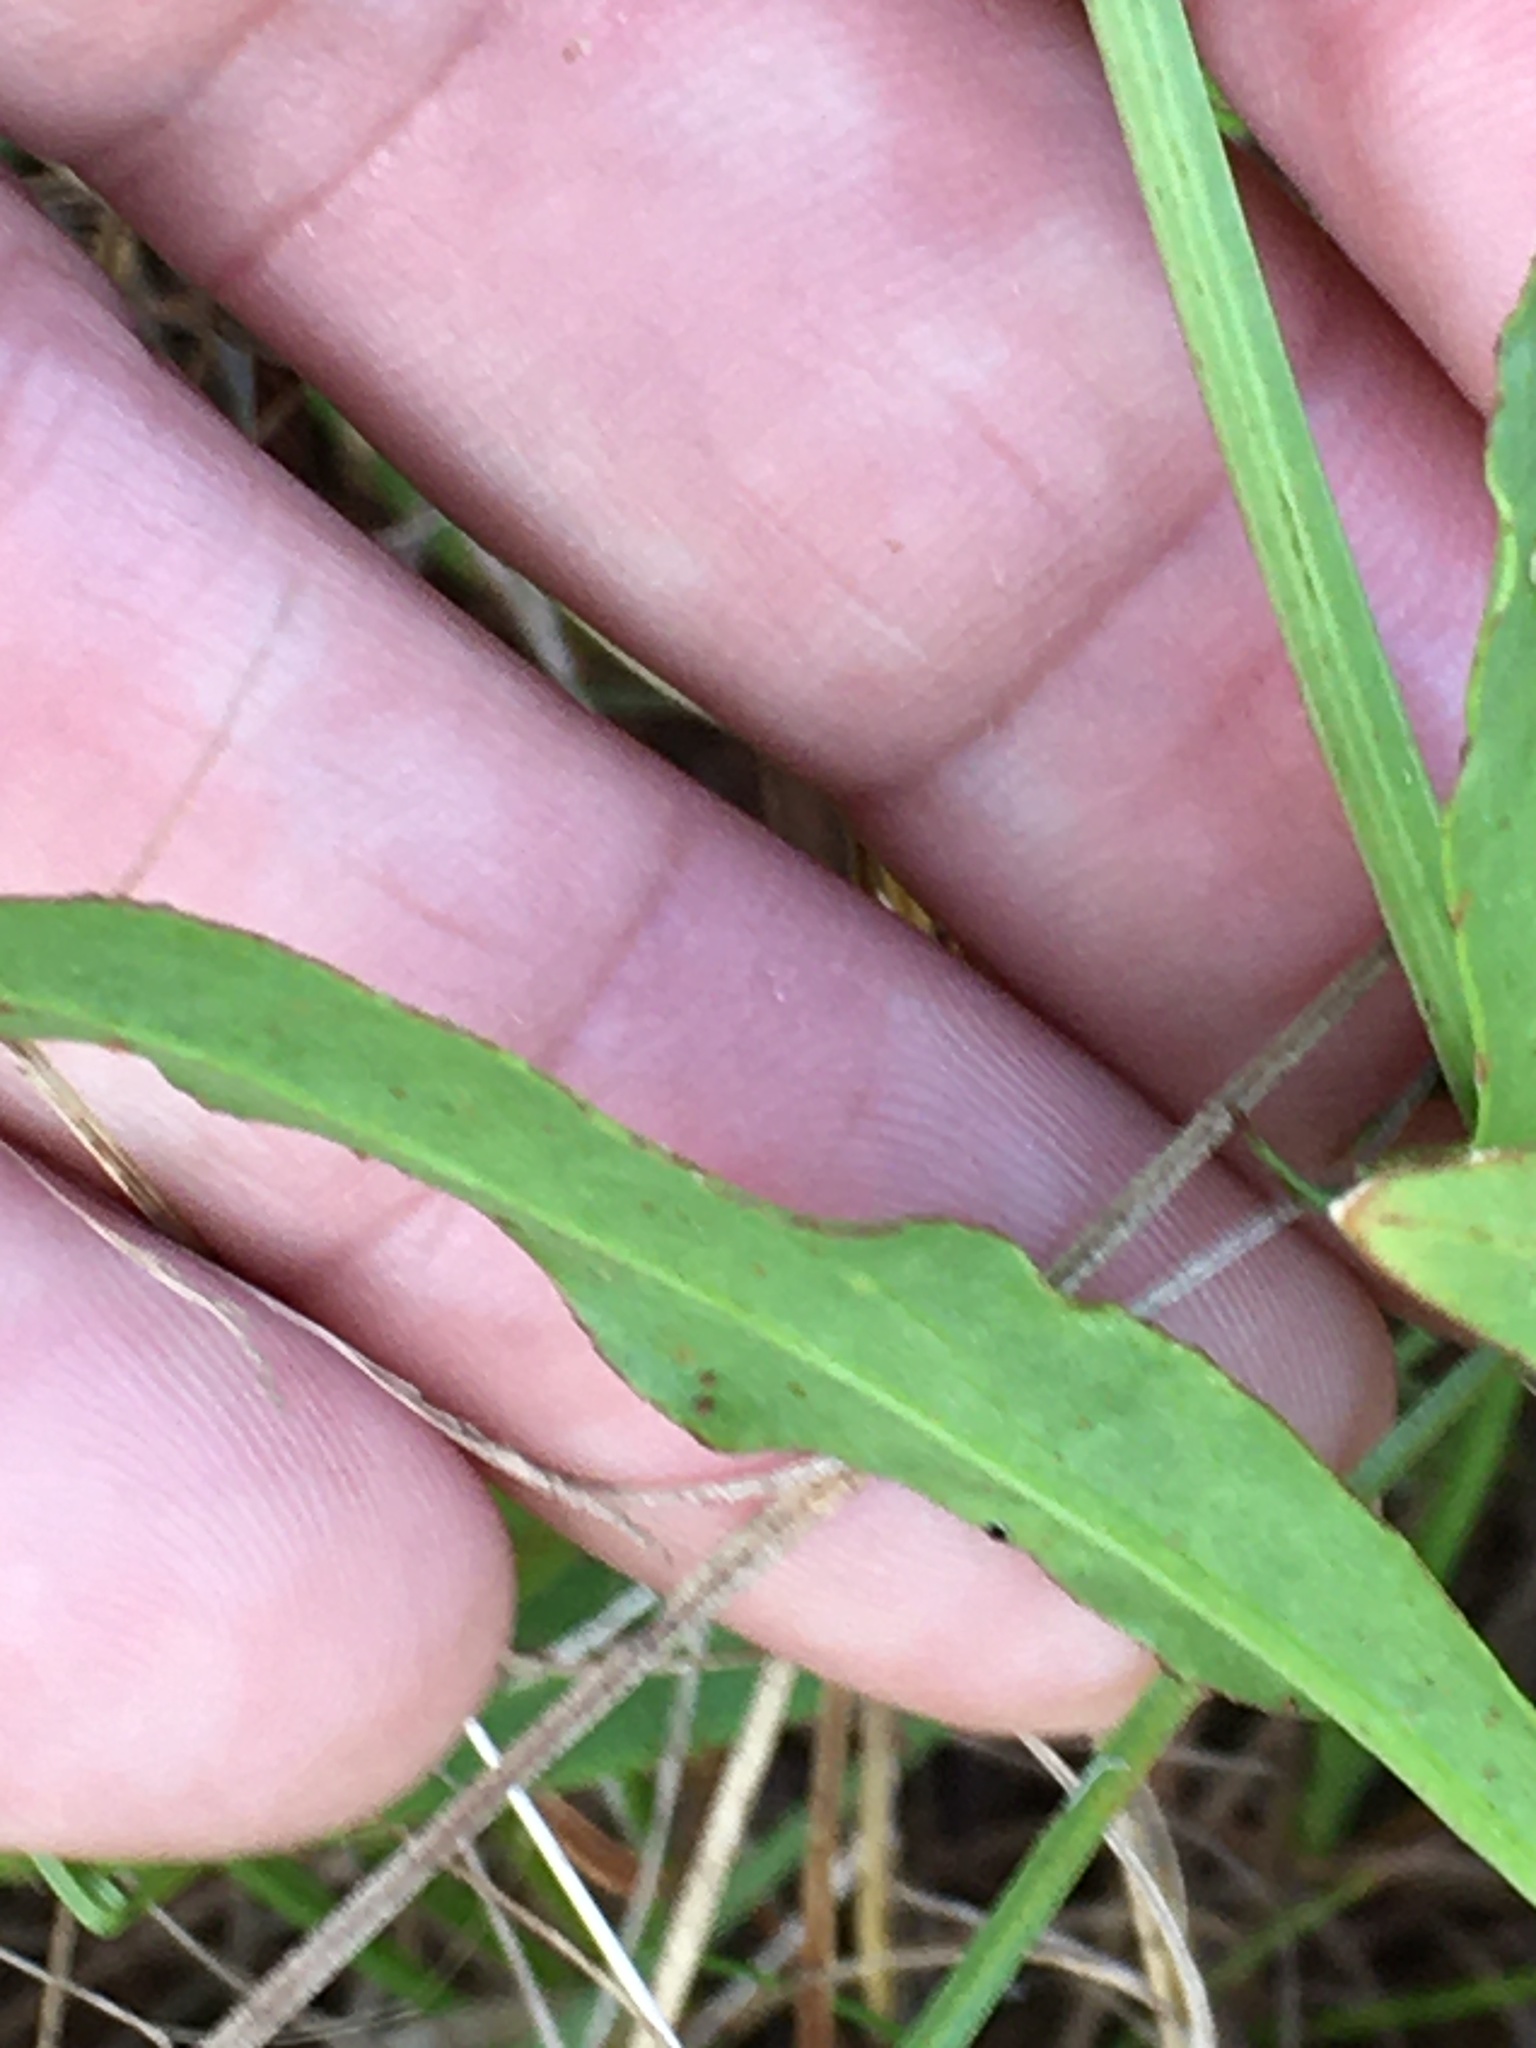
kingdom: Plantae
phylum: Tracheophyta
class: Magnoliopsida
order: Asterales
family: Asteraceae
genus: Pyrrhopappus
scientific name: Pyrrhopappus carolinianus
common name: Carolina desert-chicory
